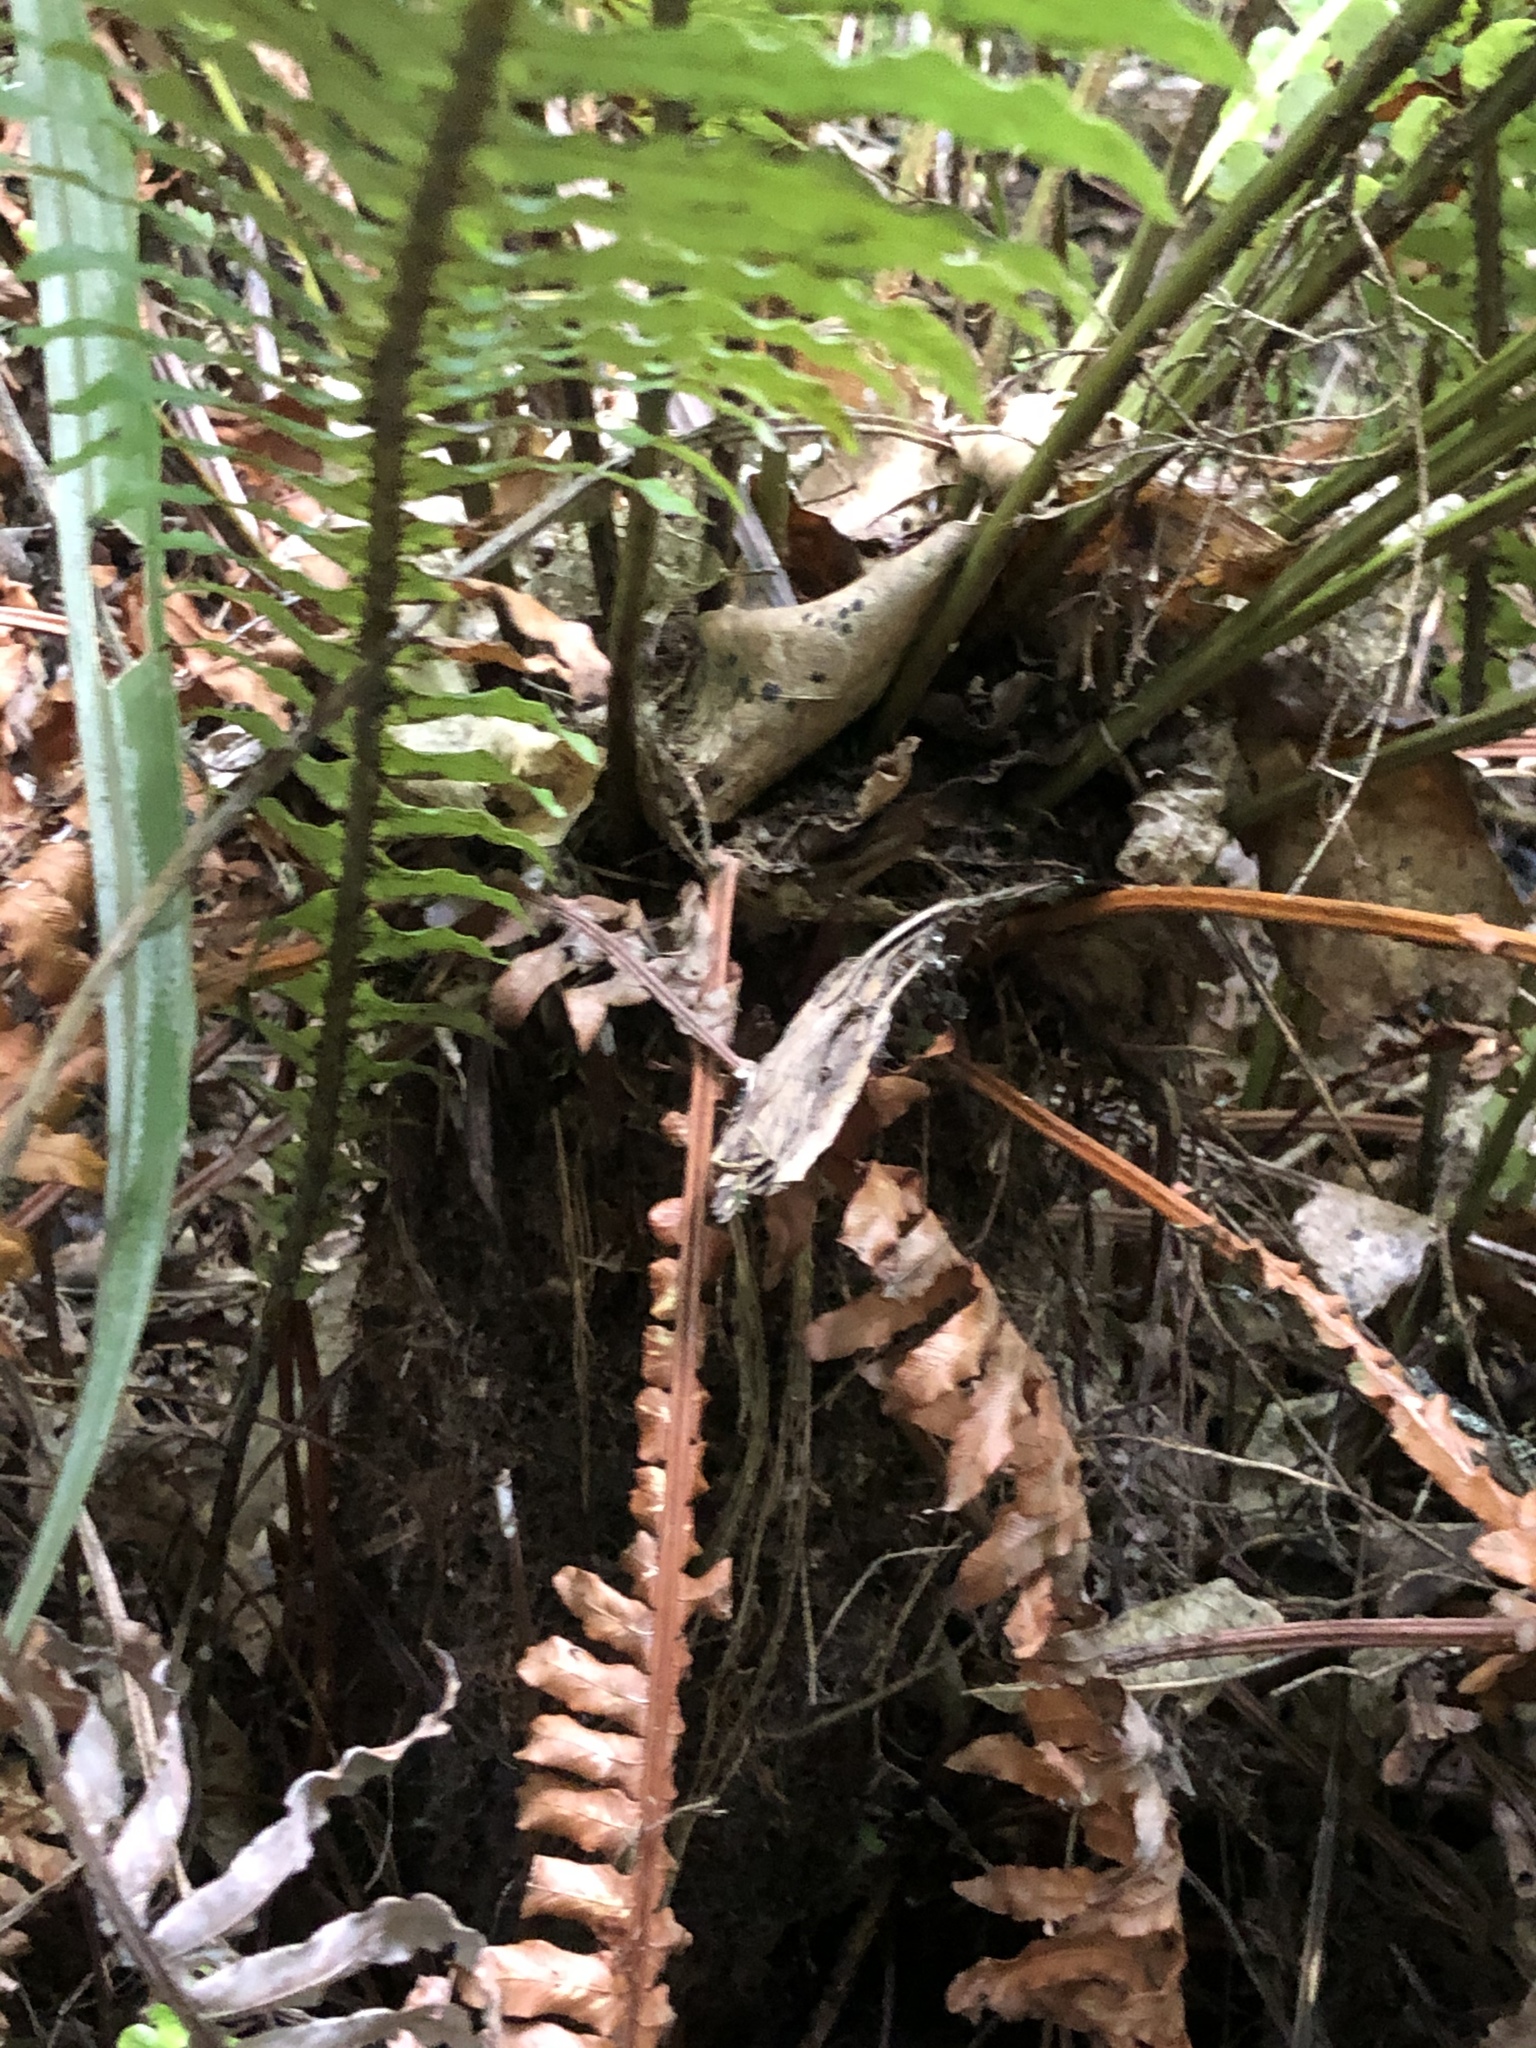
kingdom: Plantae
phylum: Tracheophyta
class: Polypodiopsida
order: Polypodiales
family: Blechnaceae
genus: Lomaria
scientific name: Lomaria discolor
